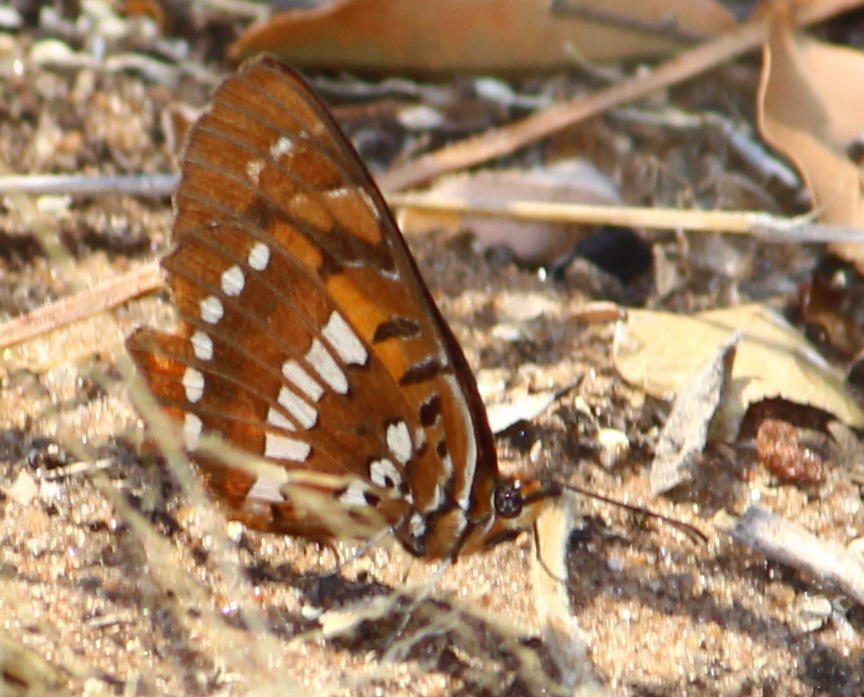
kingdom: Animalia
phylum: Arthropoda
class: Insecta
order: Lepidoptera
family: Nymphalidae
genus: Byblia
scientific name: Byblia acheloia
